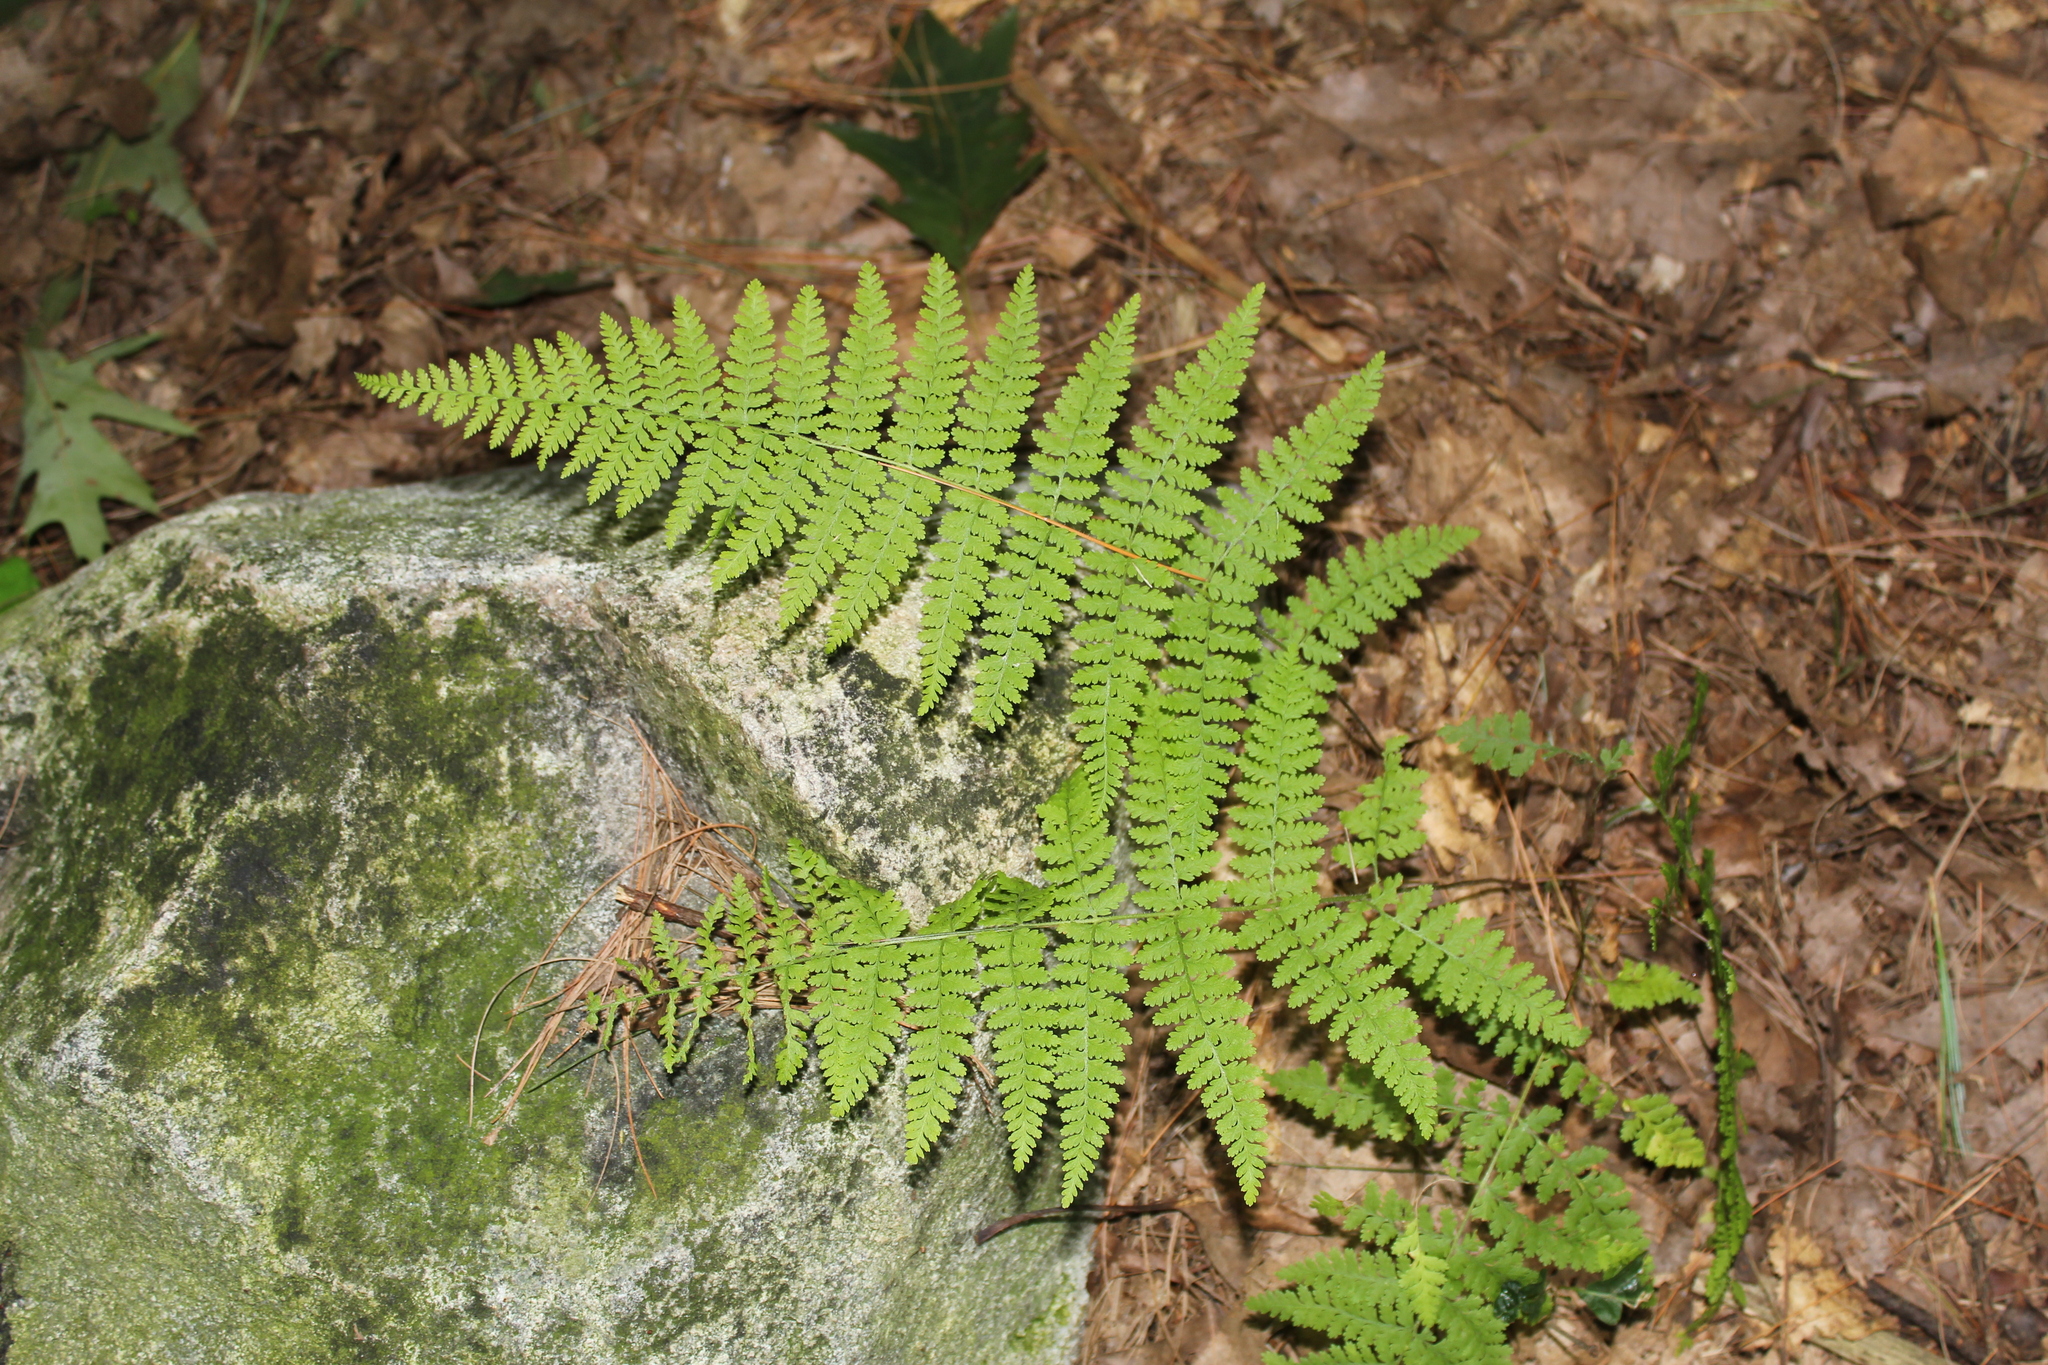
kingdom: Plantae
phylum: Tracheophyta
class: Polypodiopsida
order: Polypodiales
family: Dennstaedtiaceae
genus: Sitobolium
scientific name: Sitobolium punctilobum
